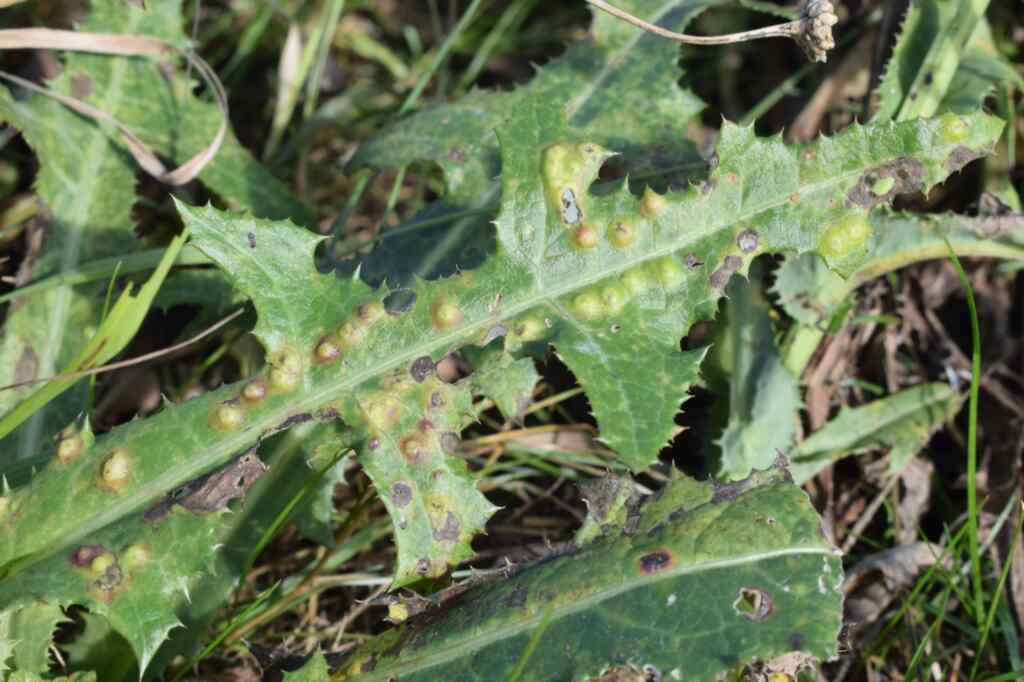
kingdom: Animalia
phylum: Arthropoda
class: Insecta
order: Diptera
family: Cecidomyiidae
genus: Cystiphora
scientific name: Cystiphora sonchi
